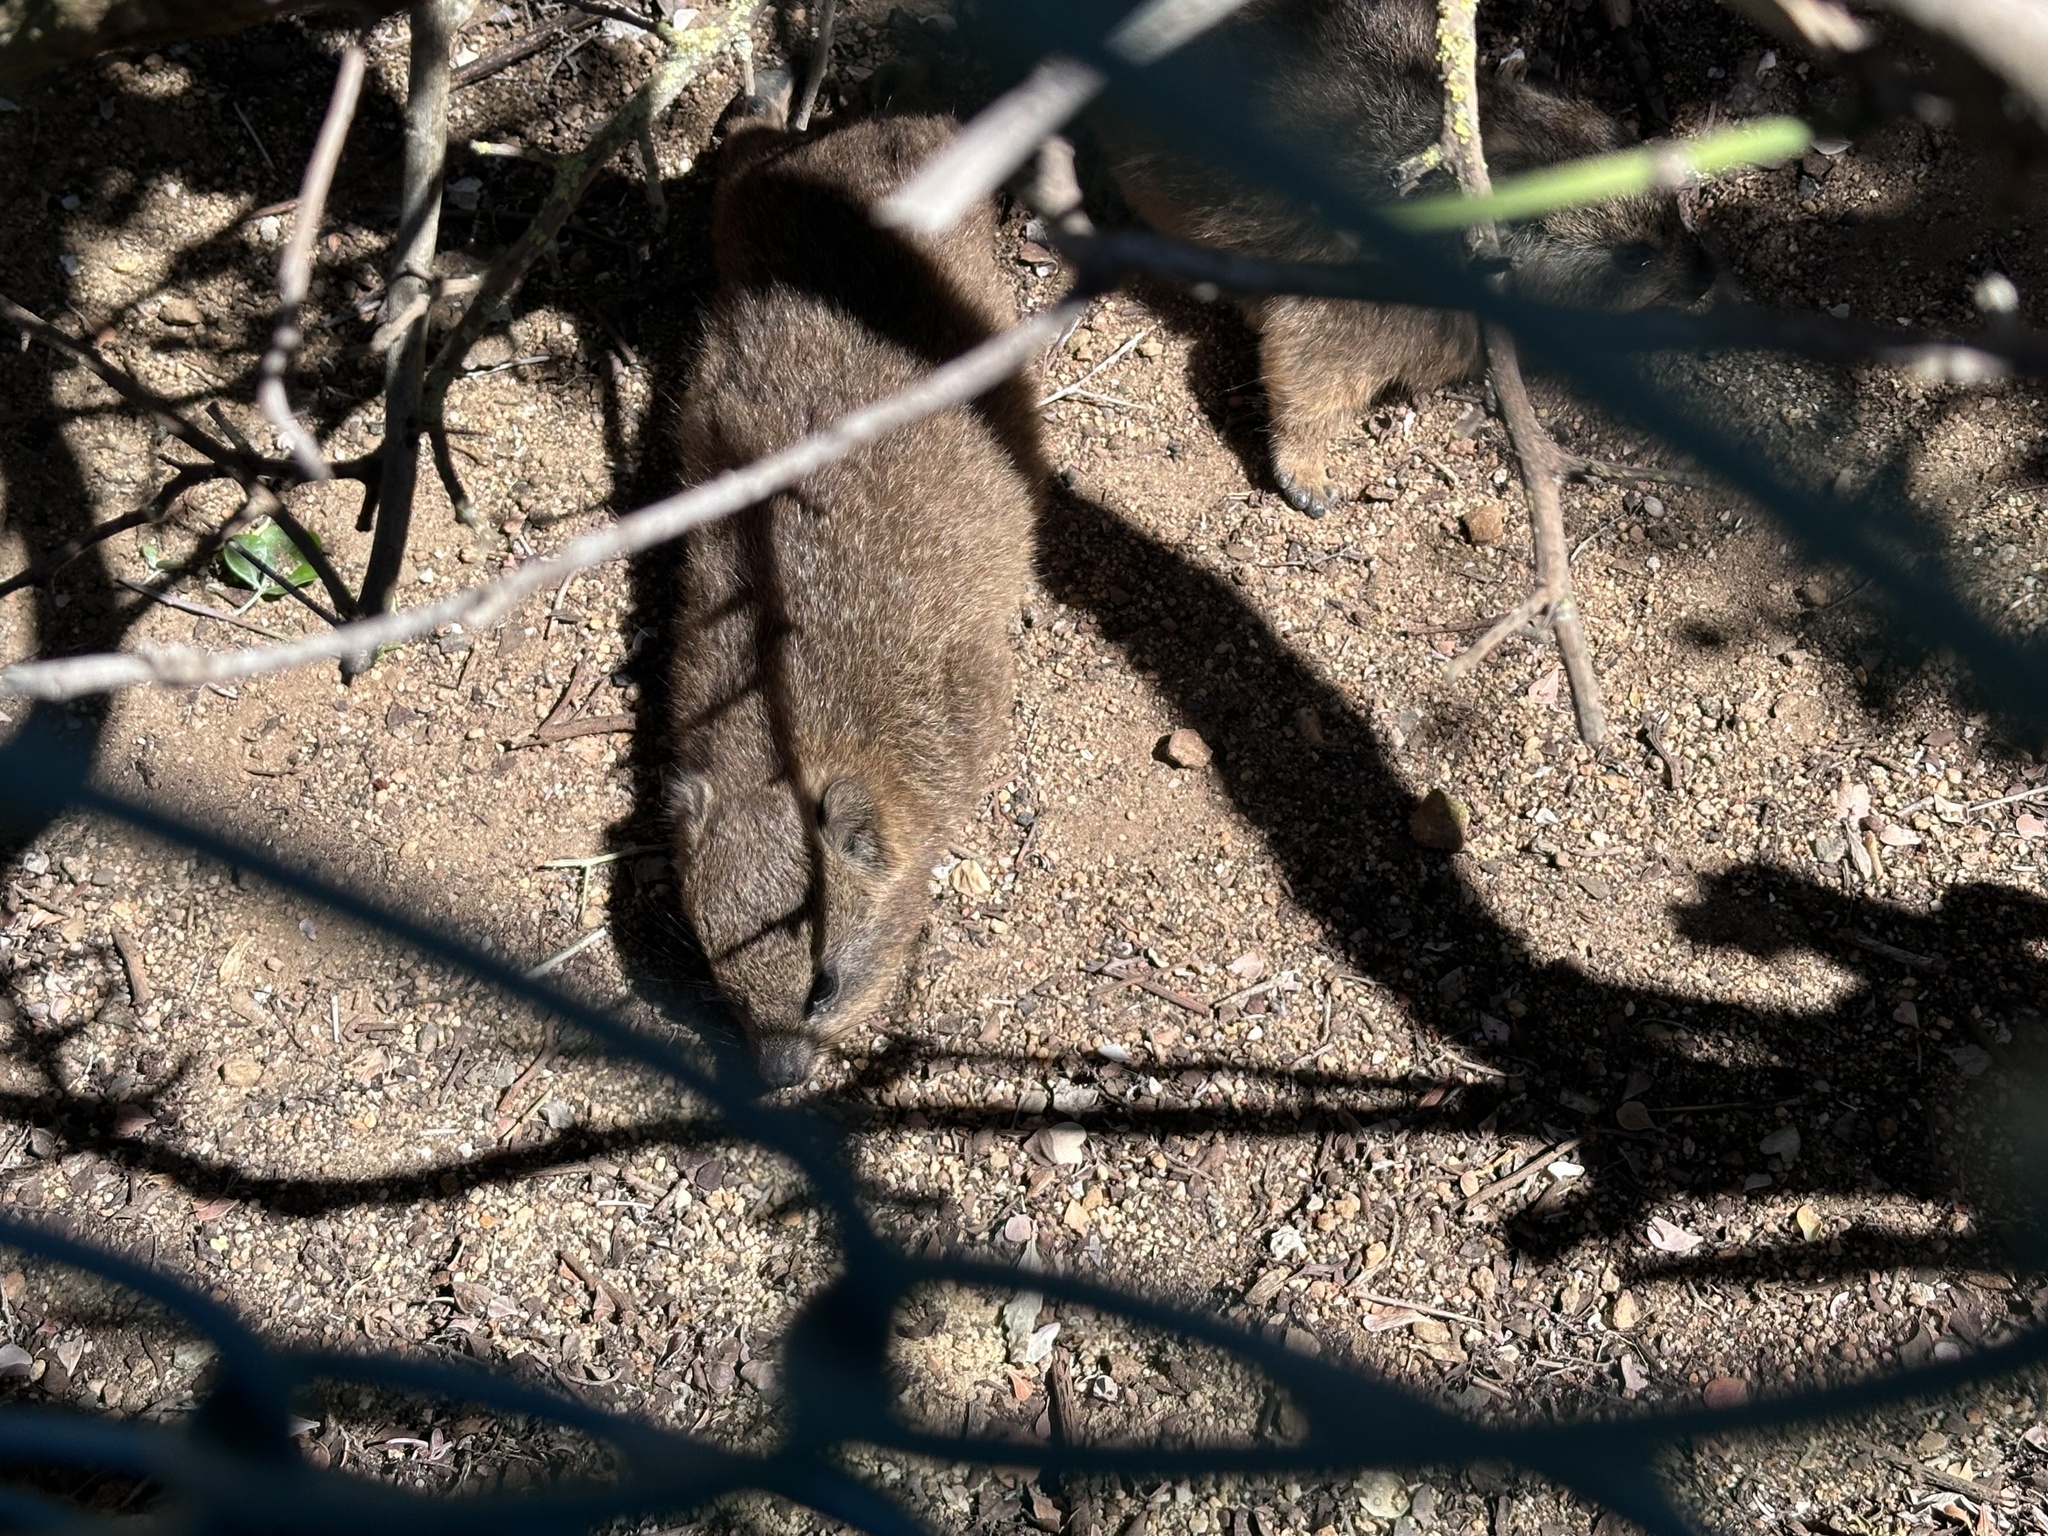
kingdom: Animalia
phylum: Chordata
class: Mammalia
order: Hyracoidea
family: Procaviidae
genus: Procavia
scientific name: Procavia capensis
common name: Rock hyrax
